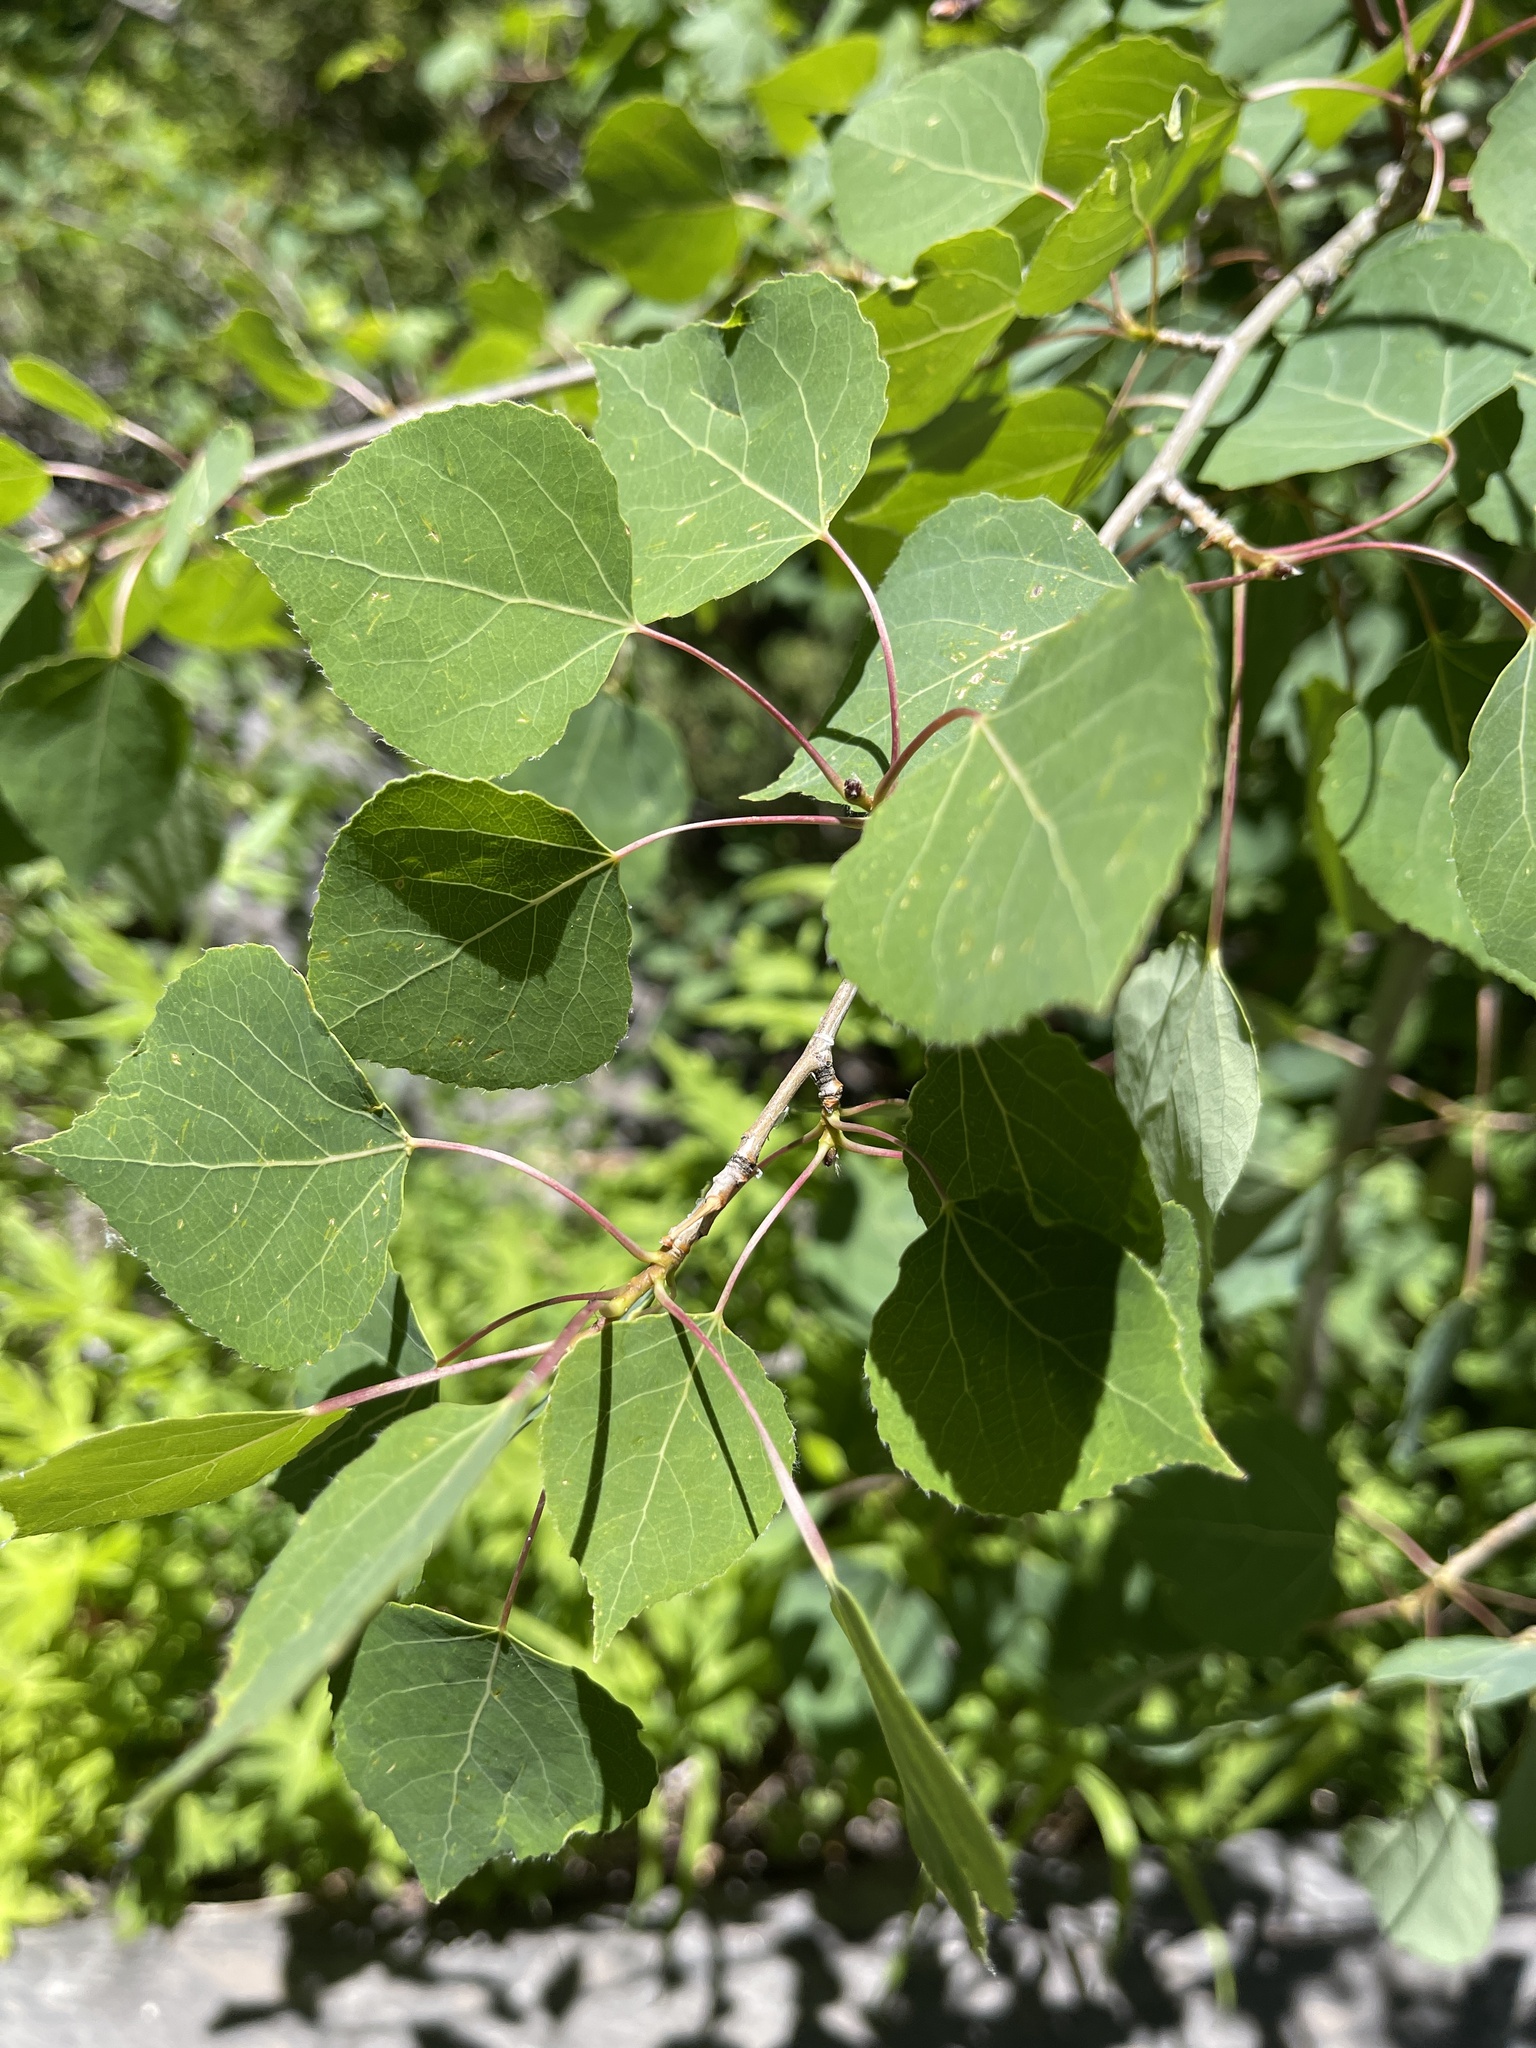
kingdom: Plantae
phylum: Tracheophyta
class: Magnoliopsida
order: Malpighiales
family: Salicaceae
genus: Populus
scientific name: Populus tremuloides
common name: Quaking aspen
